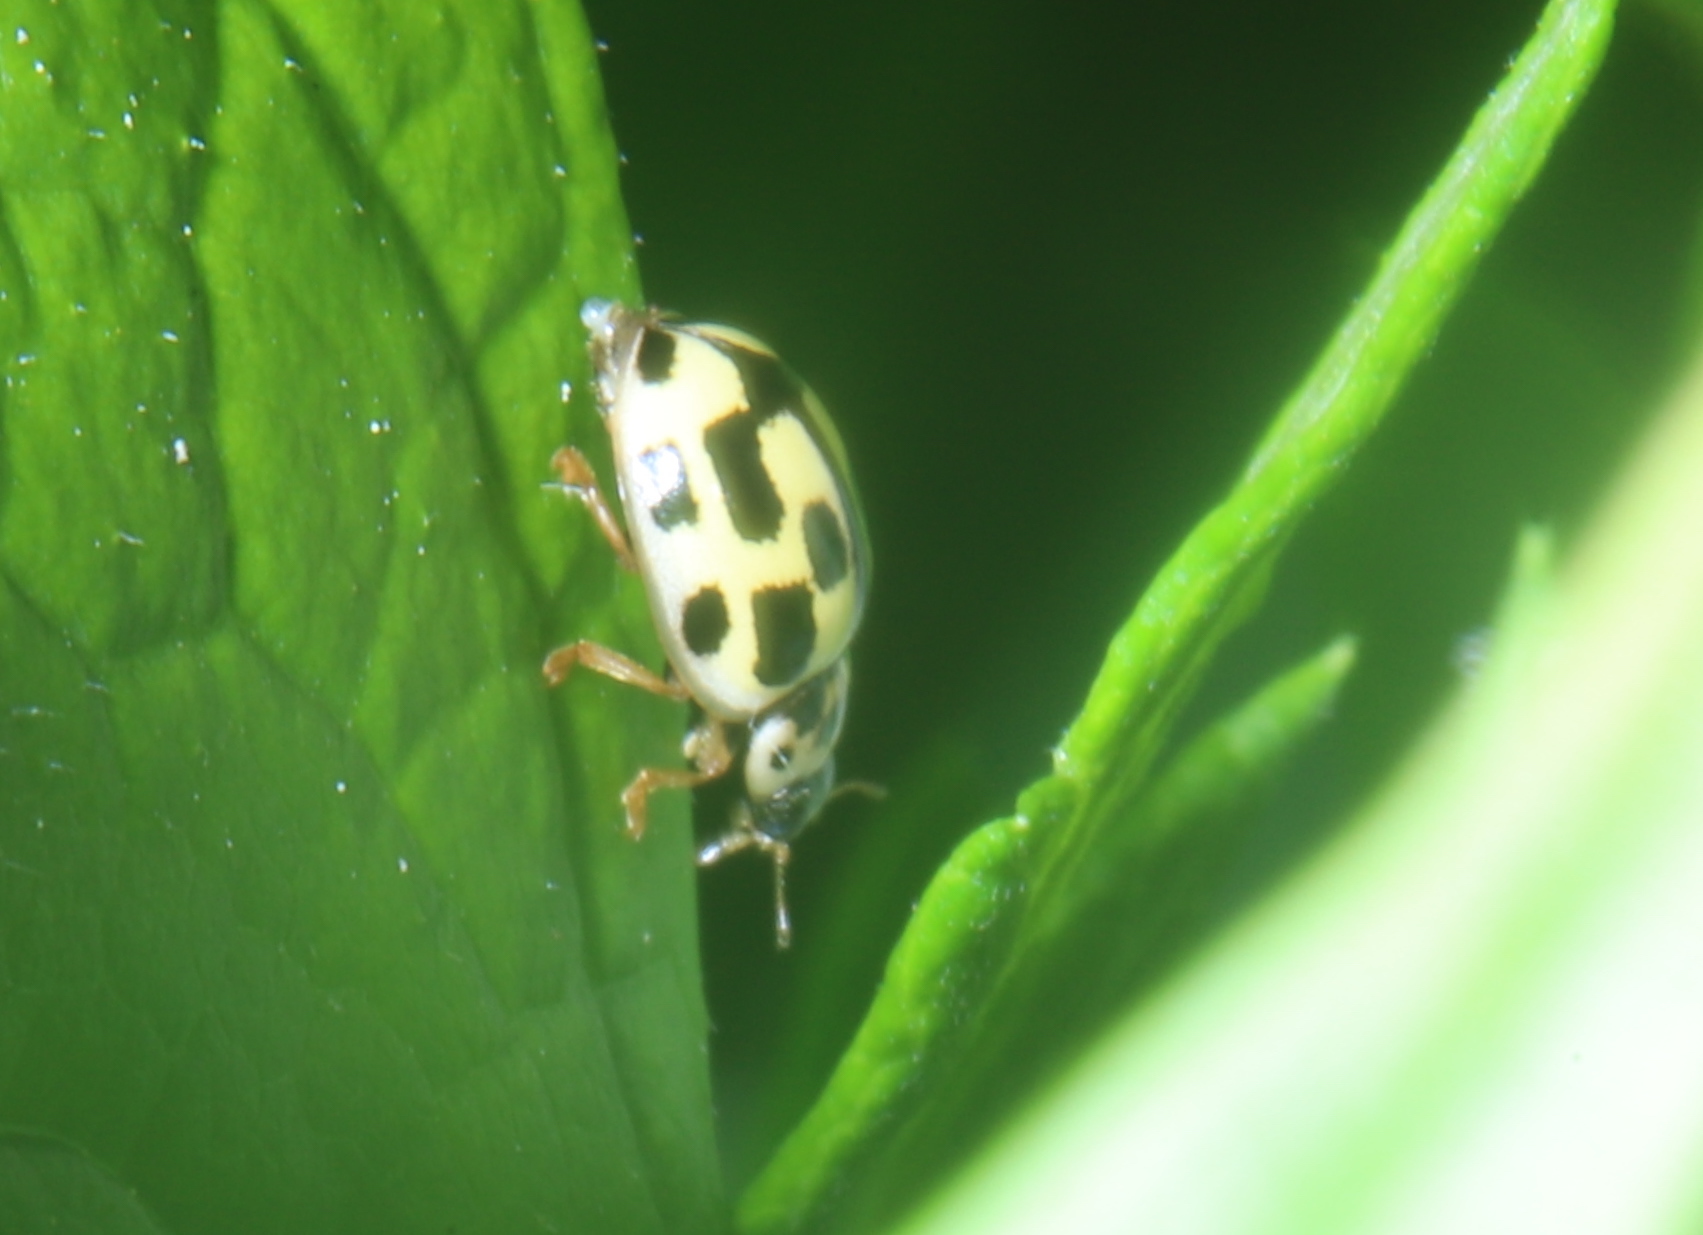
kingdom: Animalia
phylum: Arthropoda
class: Insecta
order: Coleoptera
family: Coccinellidae
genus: Propylaea
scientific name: Propylaea quatuordecimpunctata
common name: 14-spotted ladybird beetle
